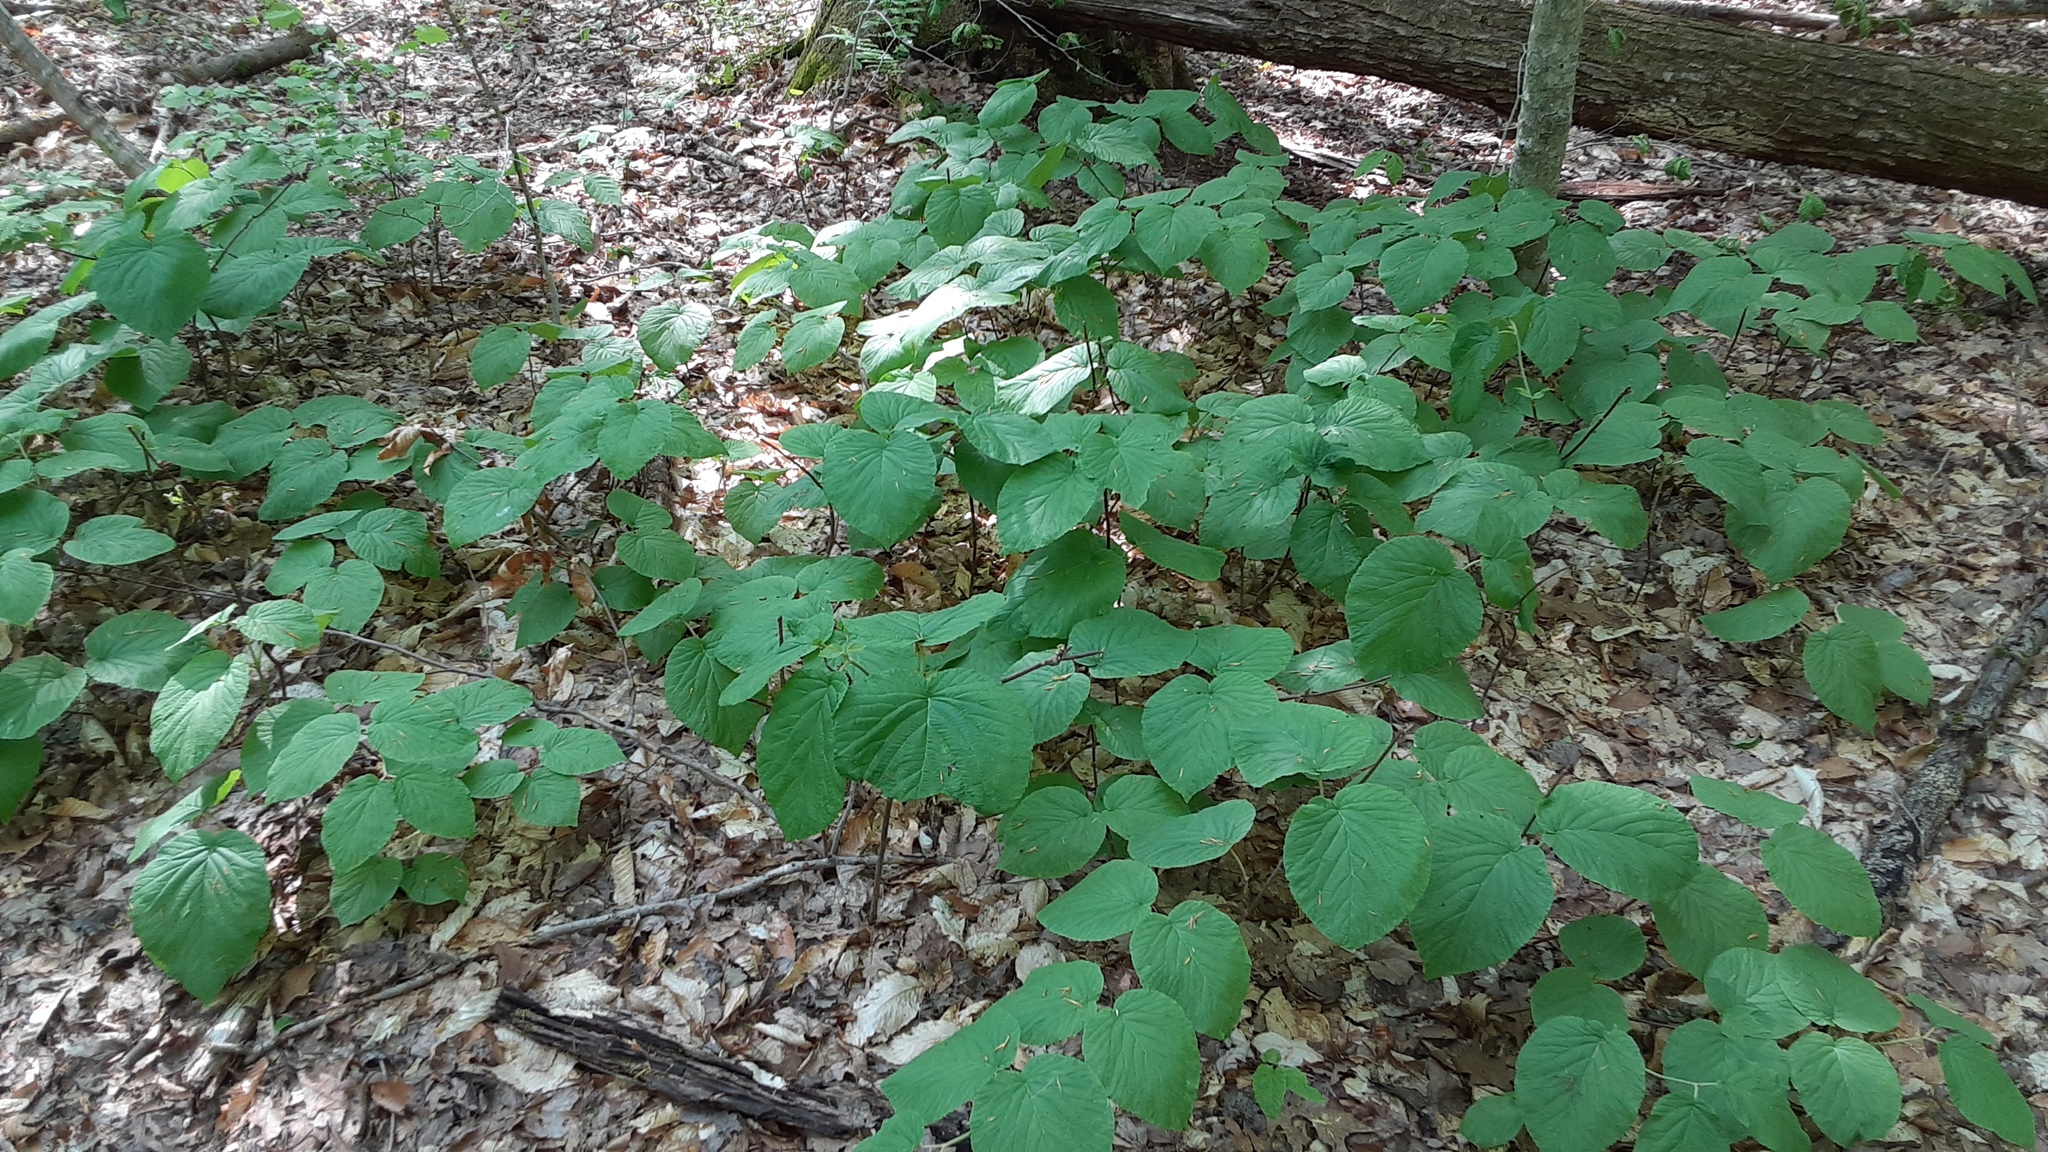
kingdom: Plantae
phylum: Tracheophyta
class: Magnoliopsida
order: Dipsacales
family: Viburnaceae
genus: Viburnum
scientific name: Viburnum lantanoides
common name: Hobblebush
